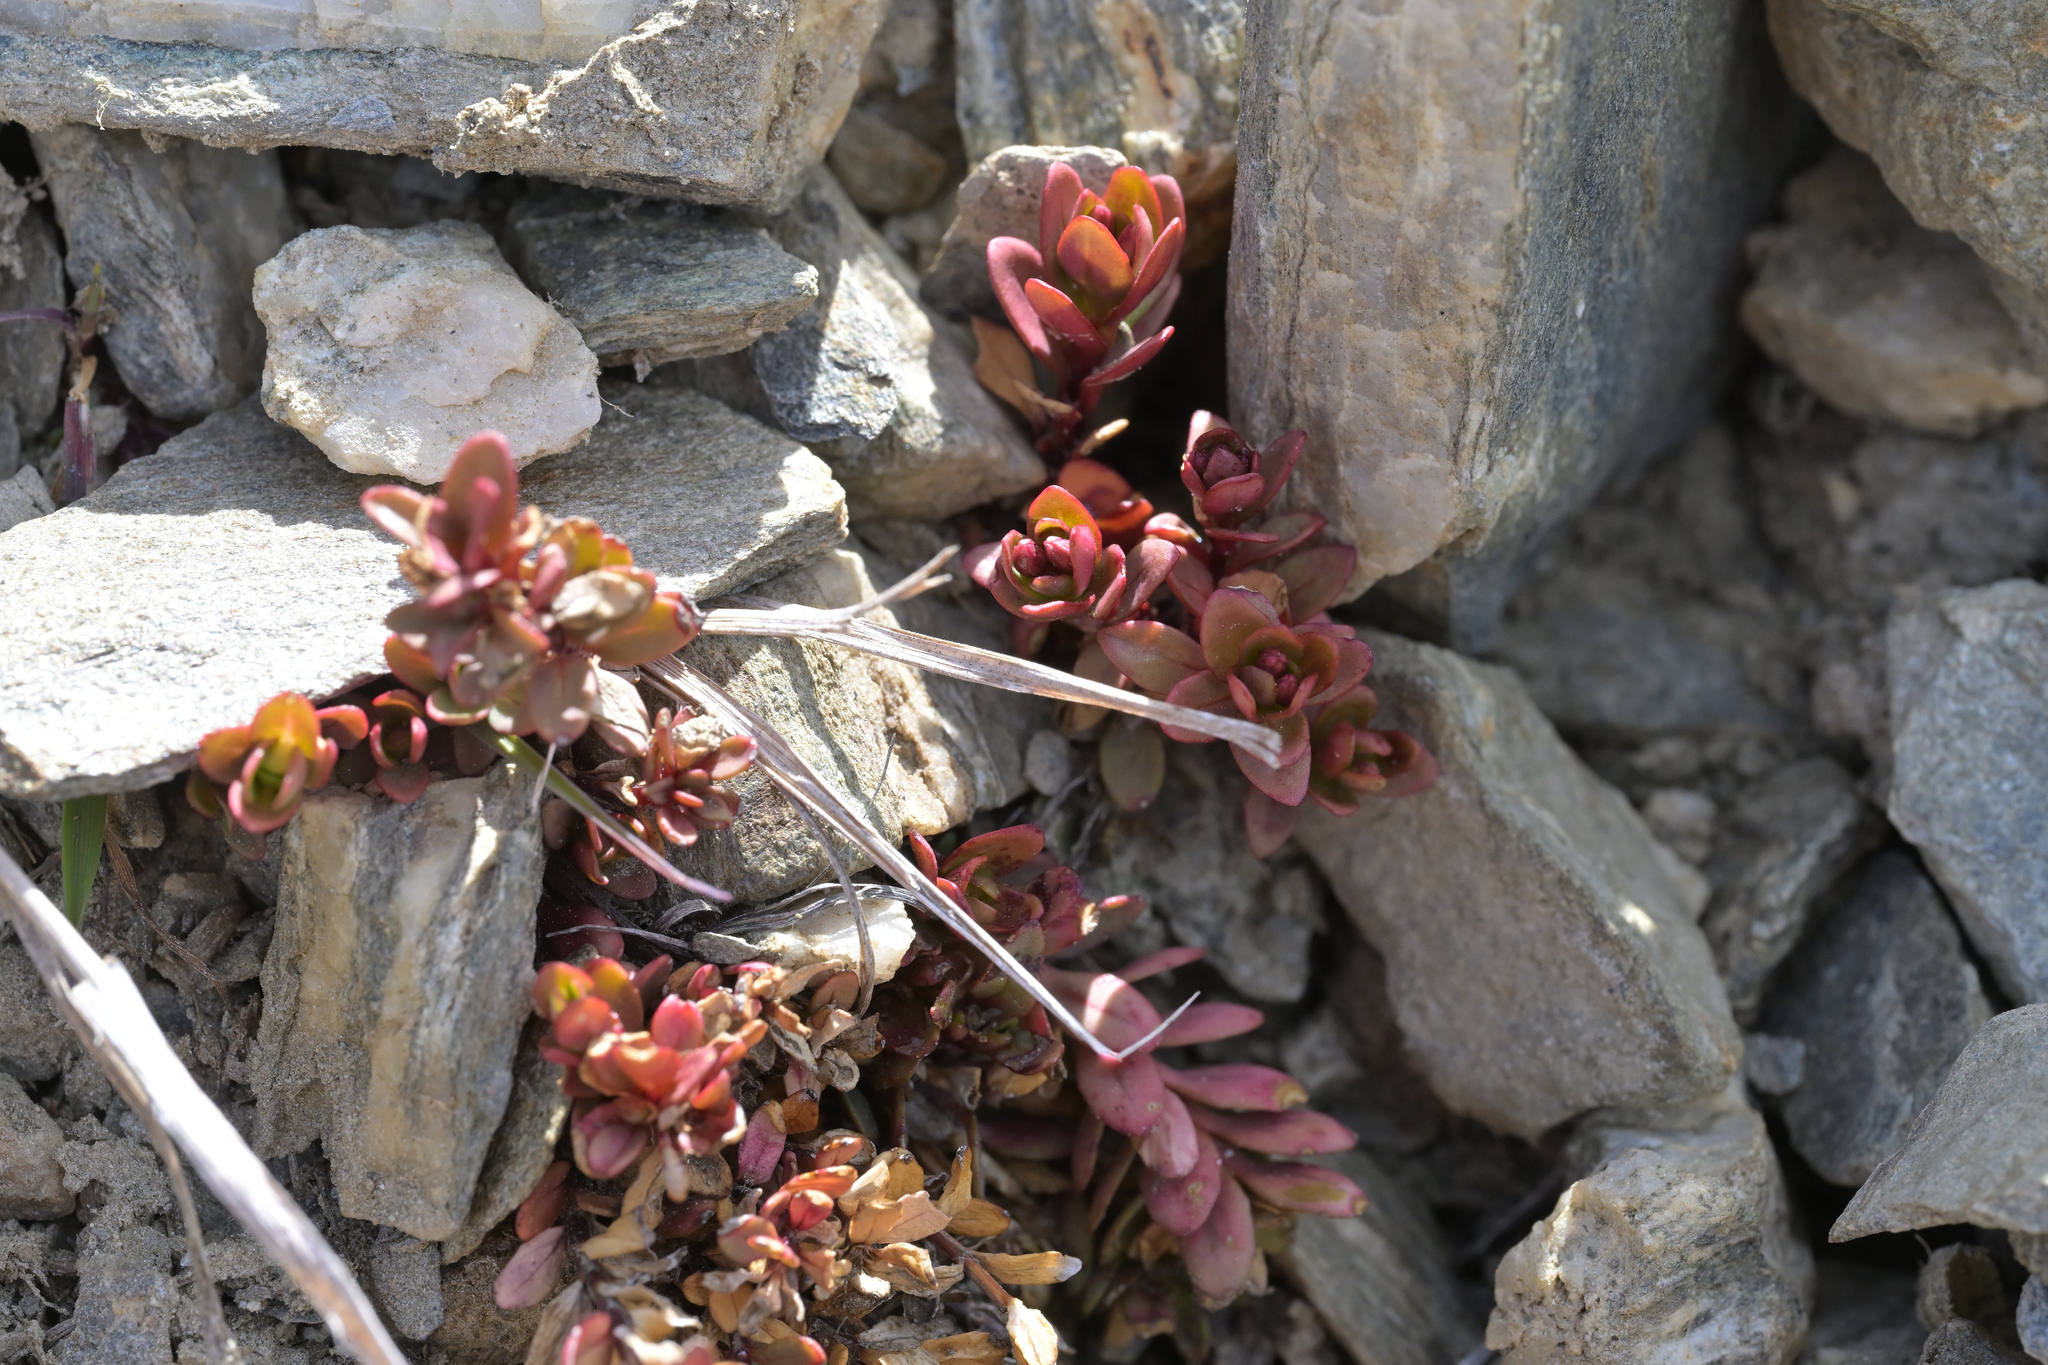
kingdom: Plantae
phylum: Tracheophyta
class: Magnoliopsida
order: Myrtales
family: Onagraceae
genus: Epilobium
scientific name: Epilobium porphyrium
